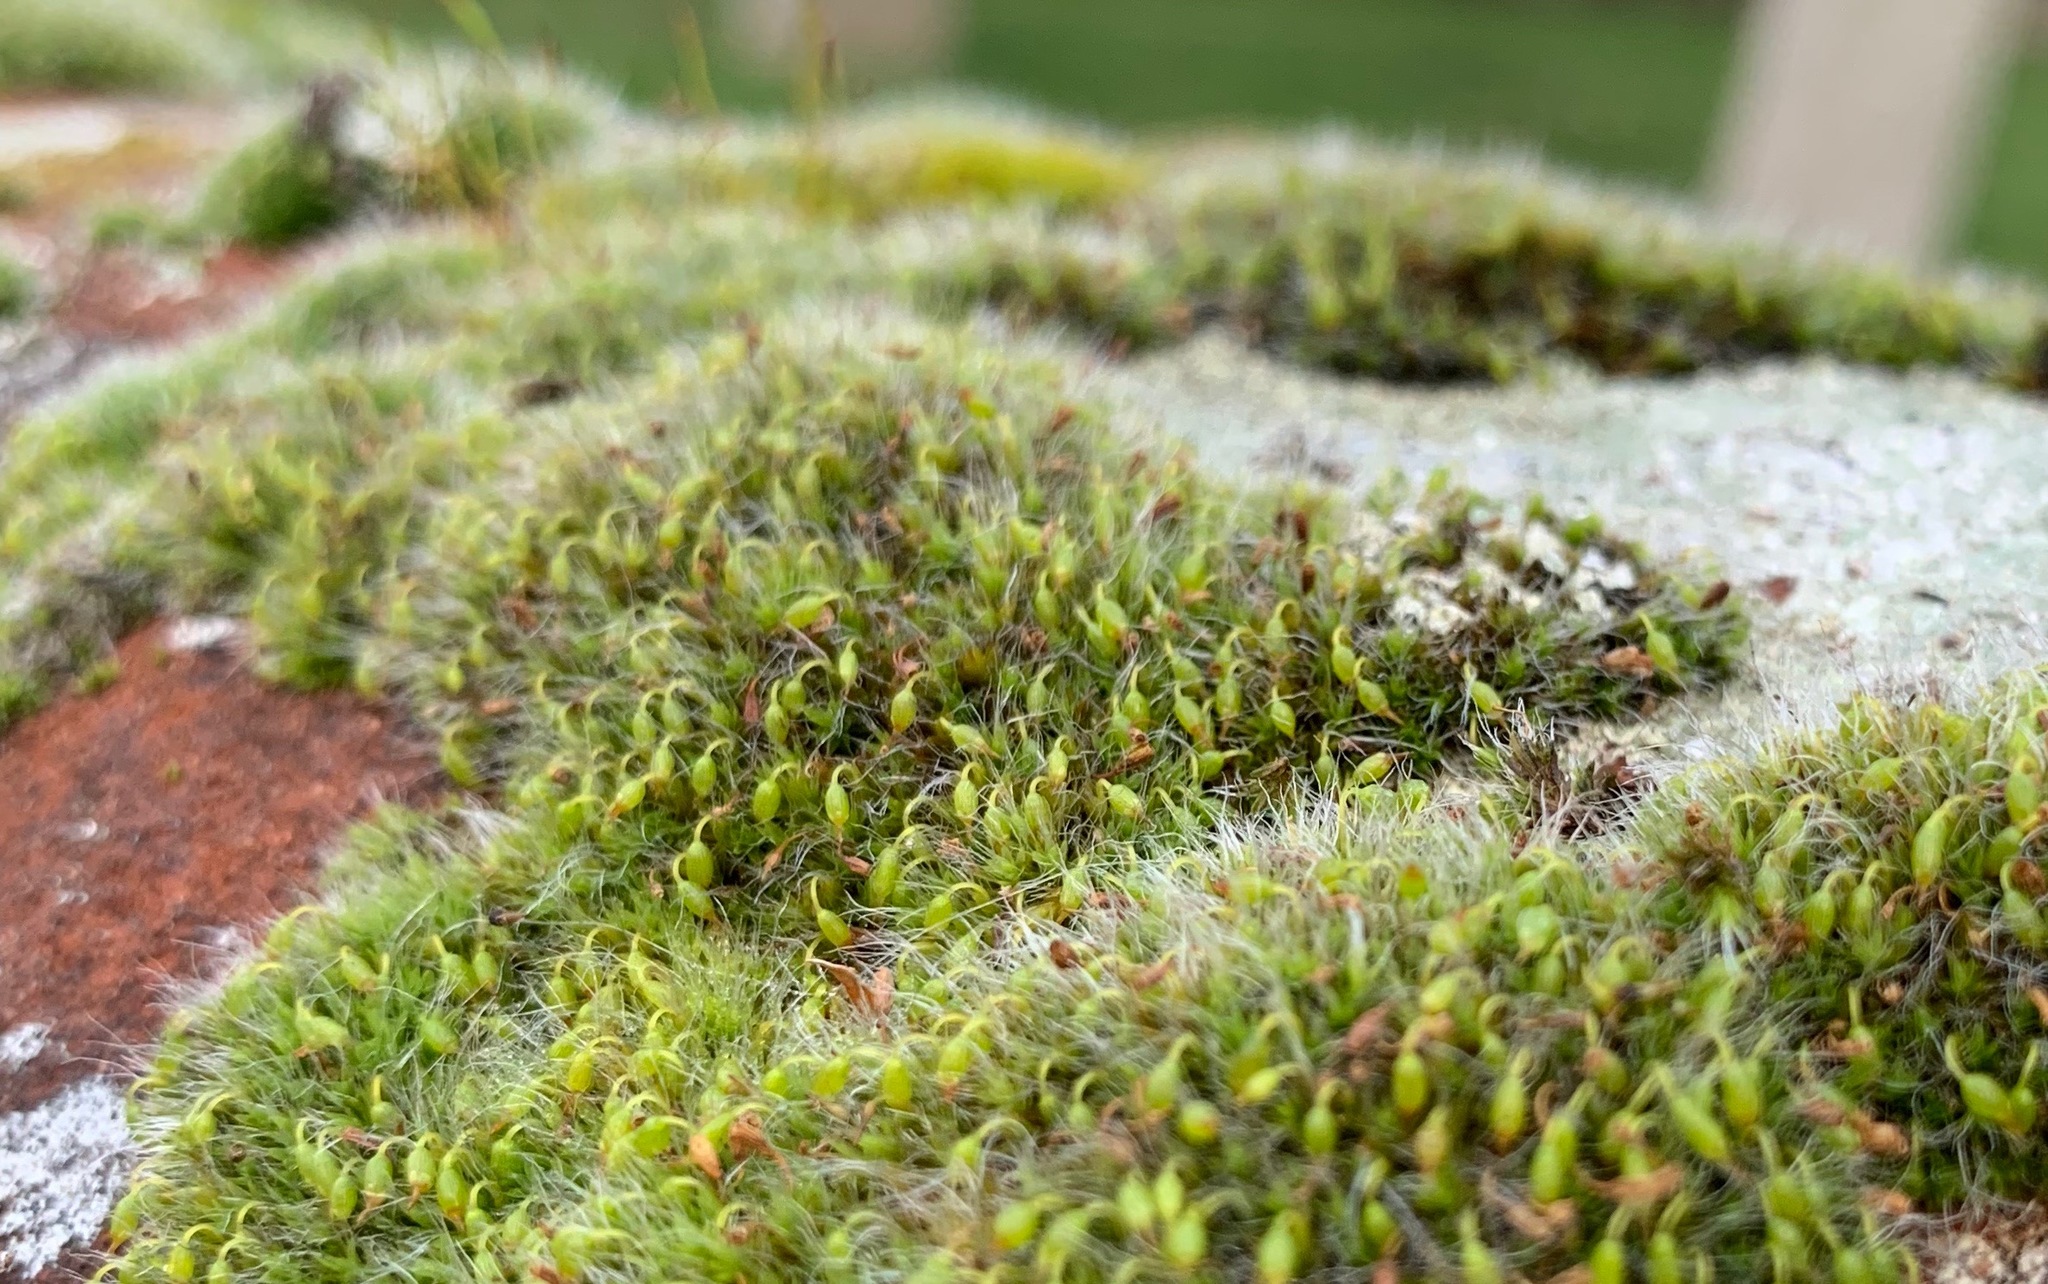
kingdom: Plantae
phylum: Bryophyta
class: Bryopsida
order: Grimmiales
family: Grimmiaceae
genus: Grimmia
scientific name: Grimmia pulvinata
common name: Grey-cushioned grimmia
